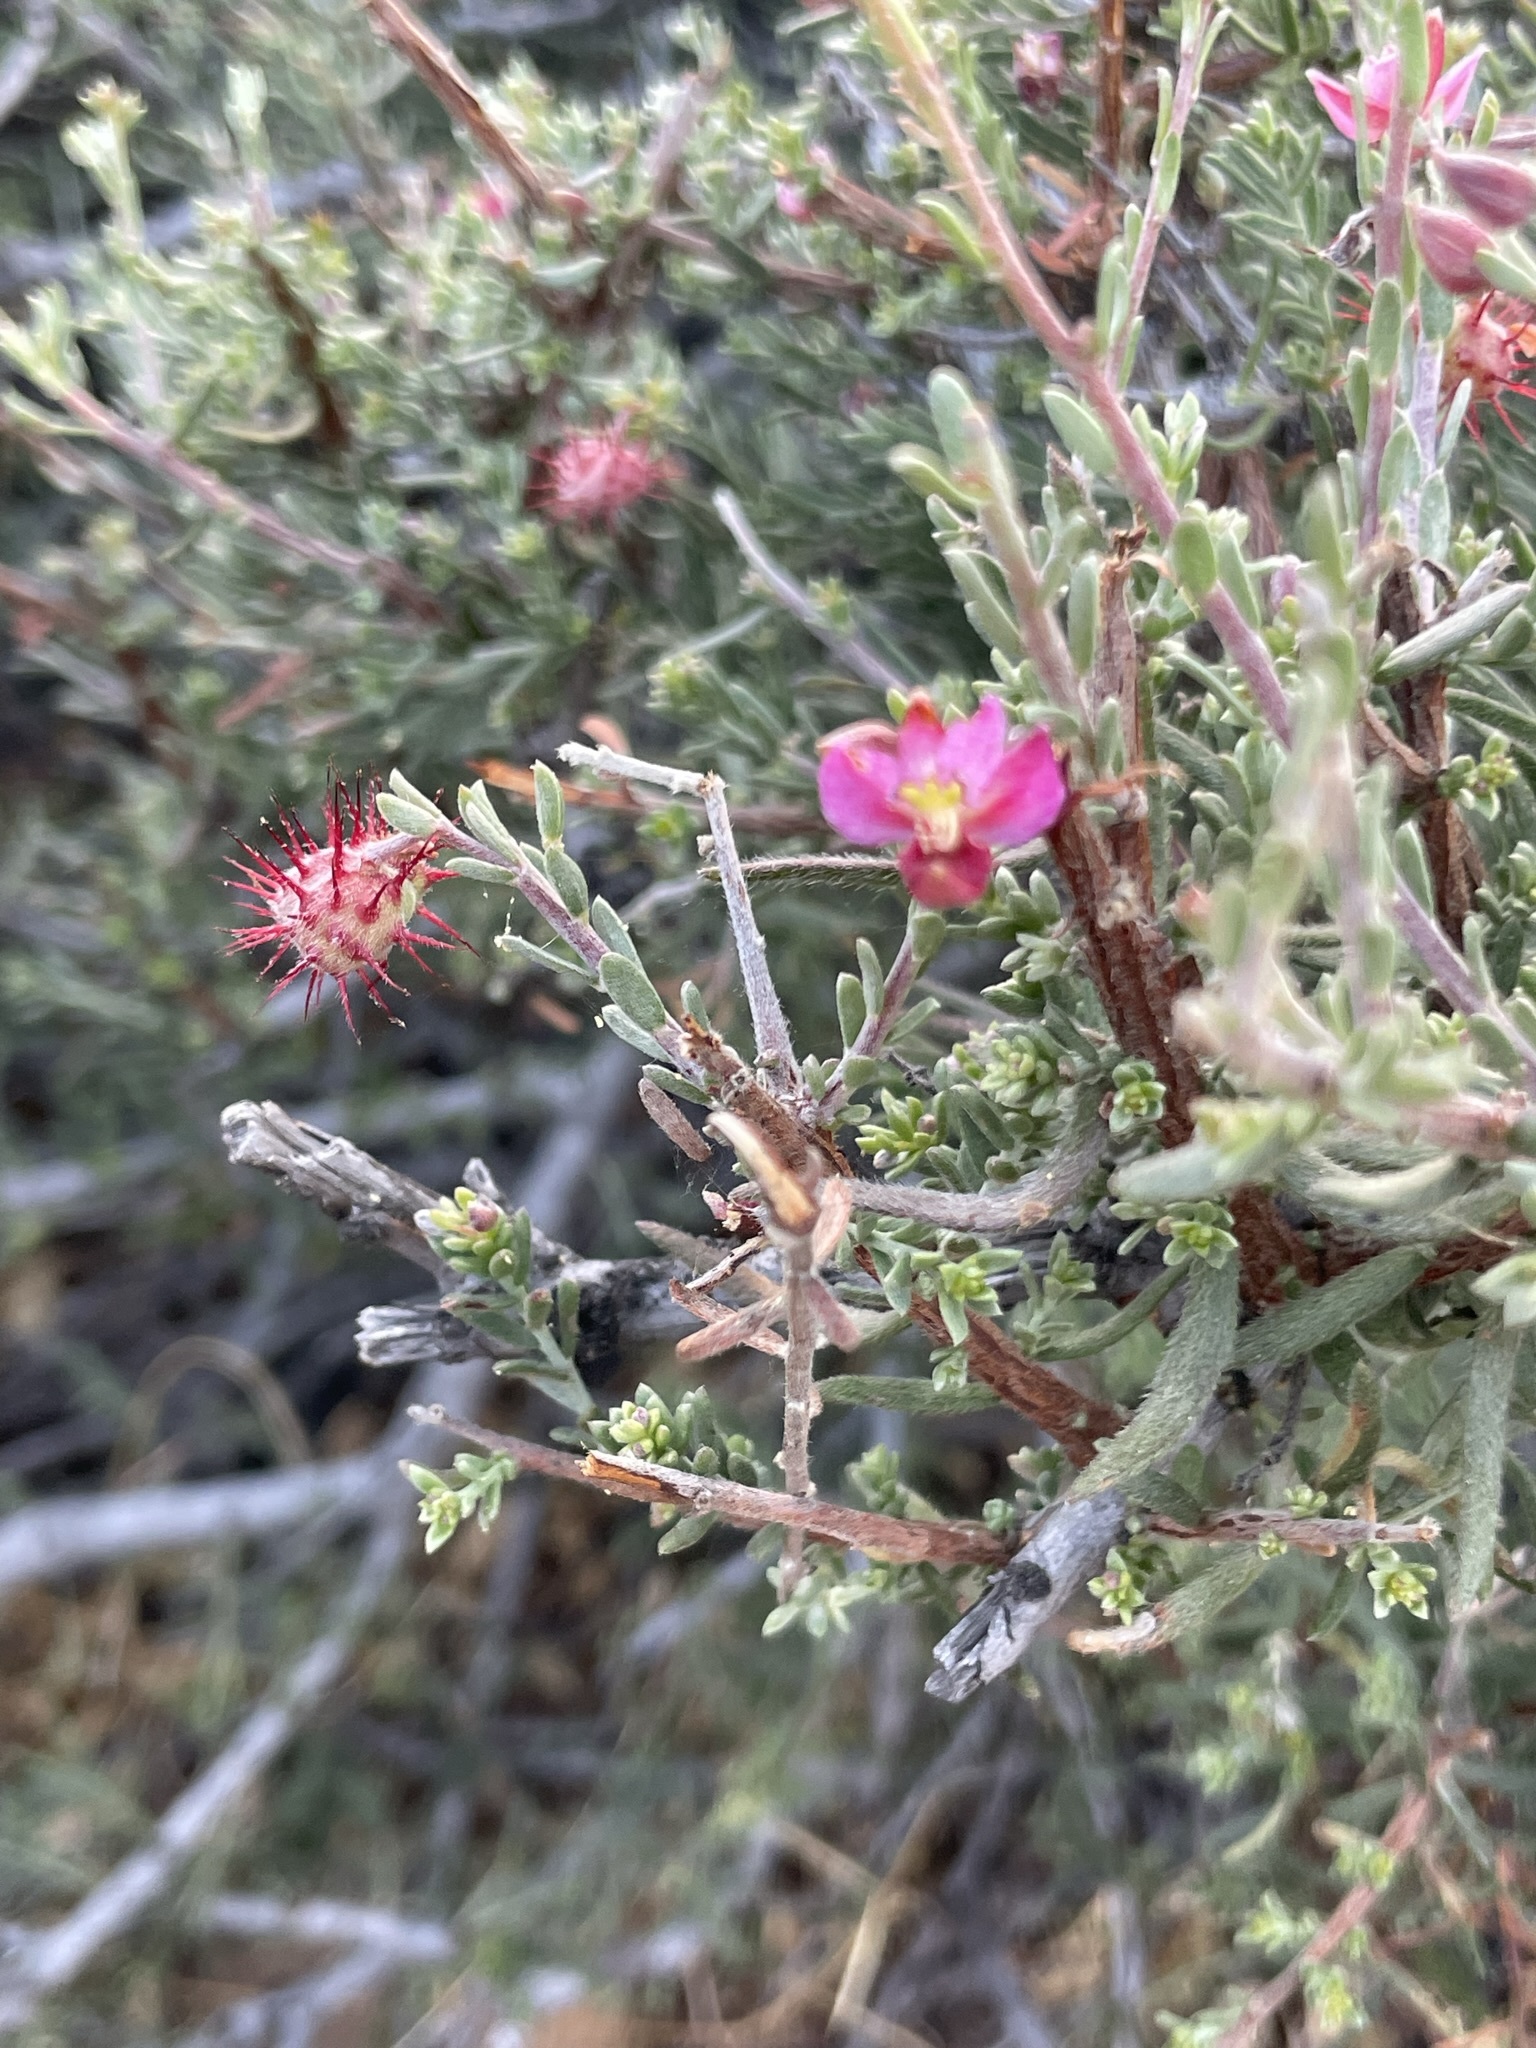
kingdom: Plantae
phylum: Tracheophyta
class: Magnoliopsida
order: Zygophyllales
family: Krameriaceae
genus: Krameria
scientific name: Krameria erecta
